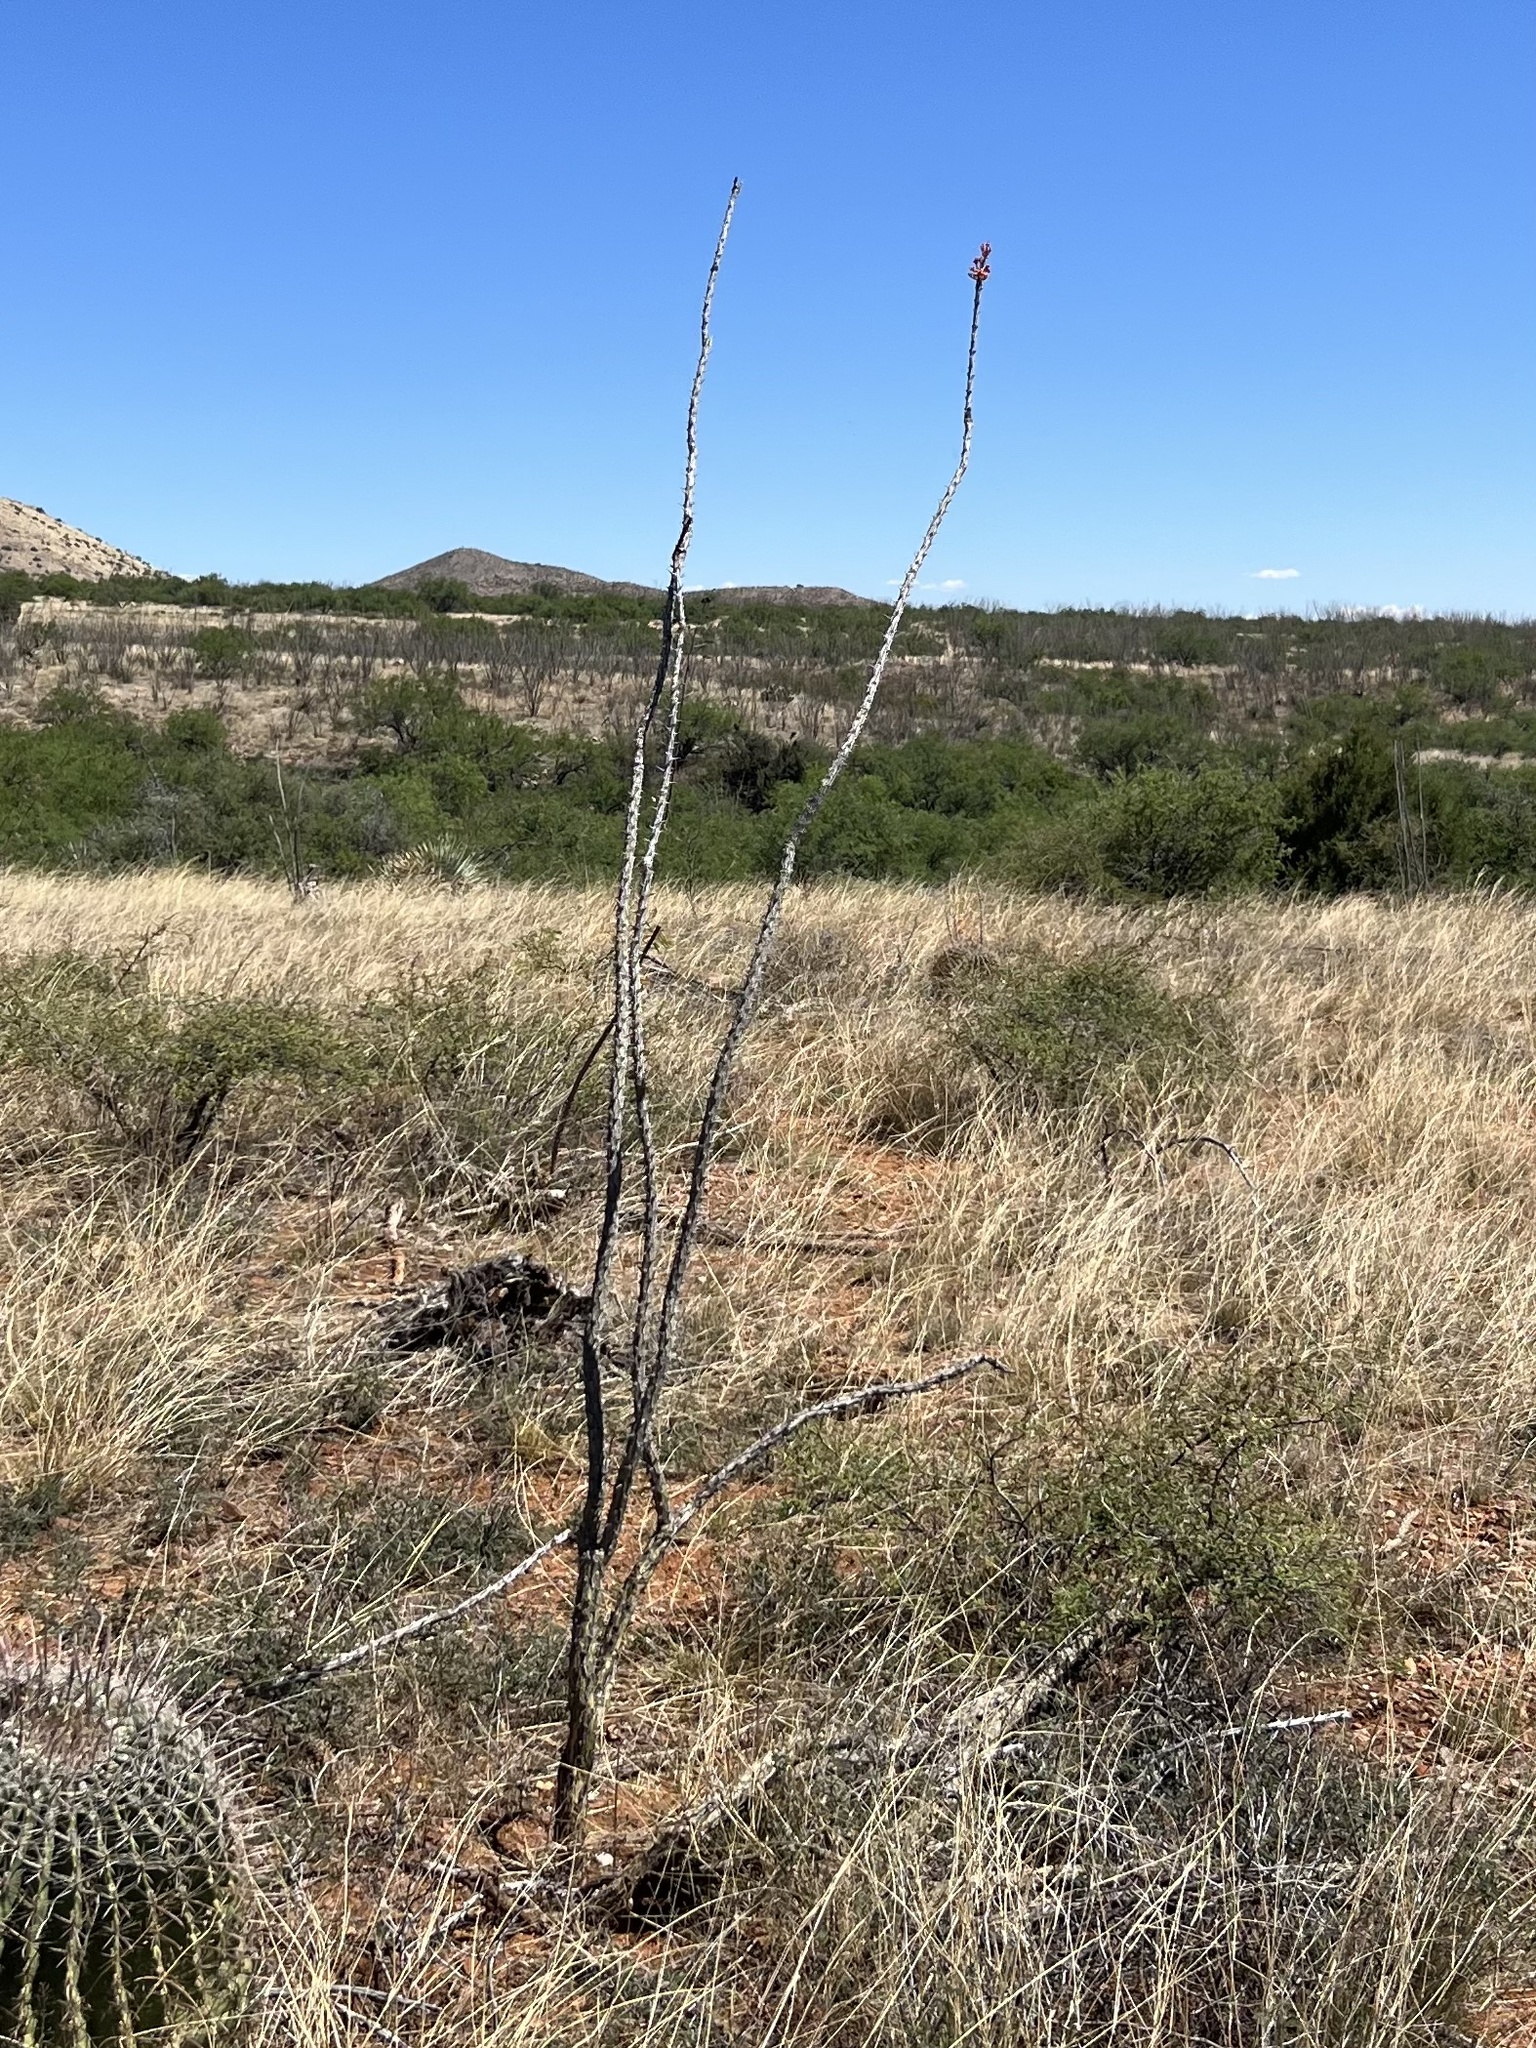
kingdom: Plantae
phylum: Tracheophyta
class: Magnoliopsida
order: Ericales
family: Fouquieriaceae
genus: Fouquieria
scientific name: Fouquieria splendens
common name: Vine-cactus
